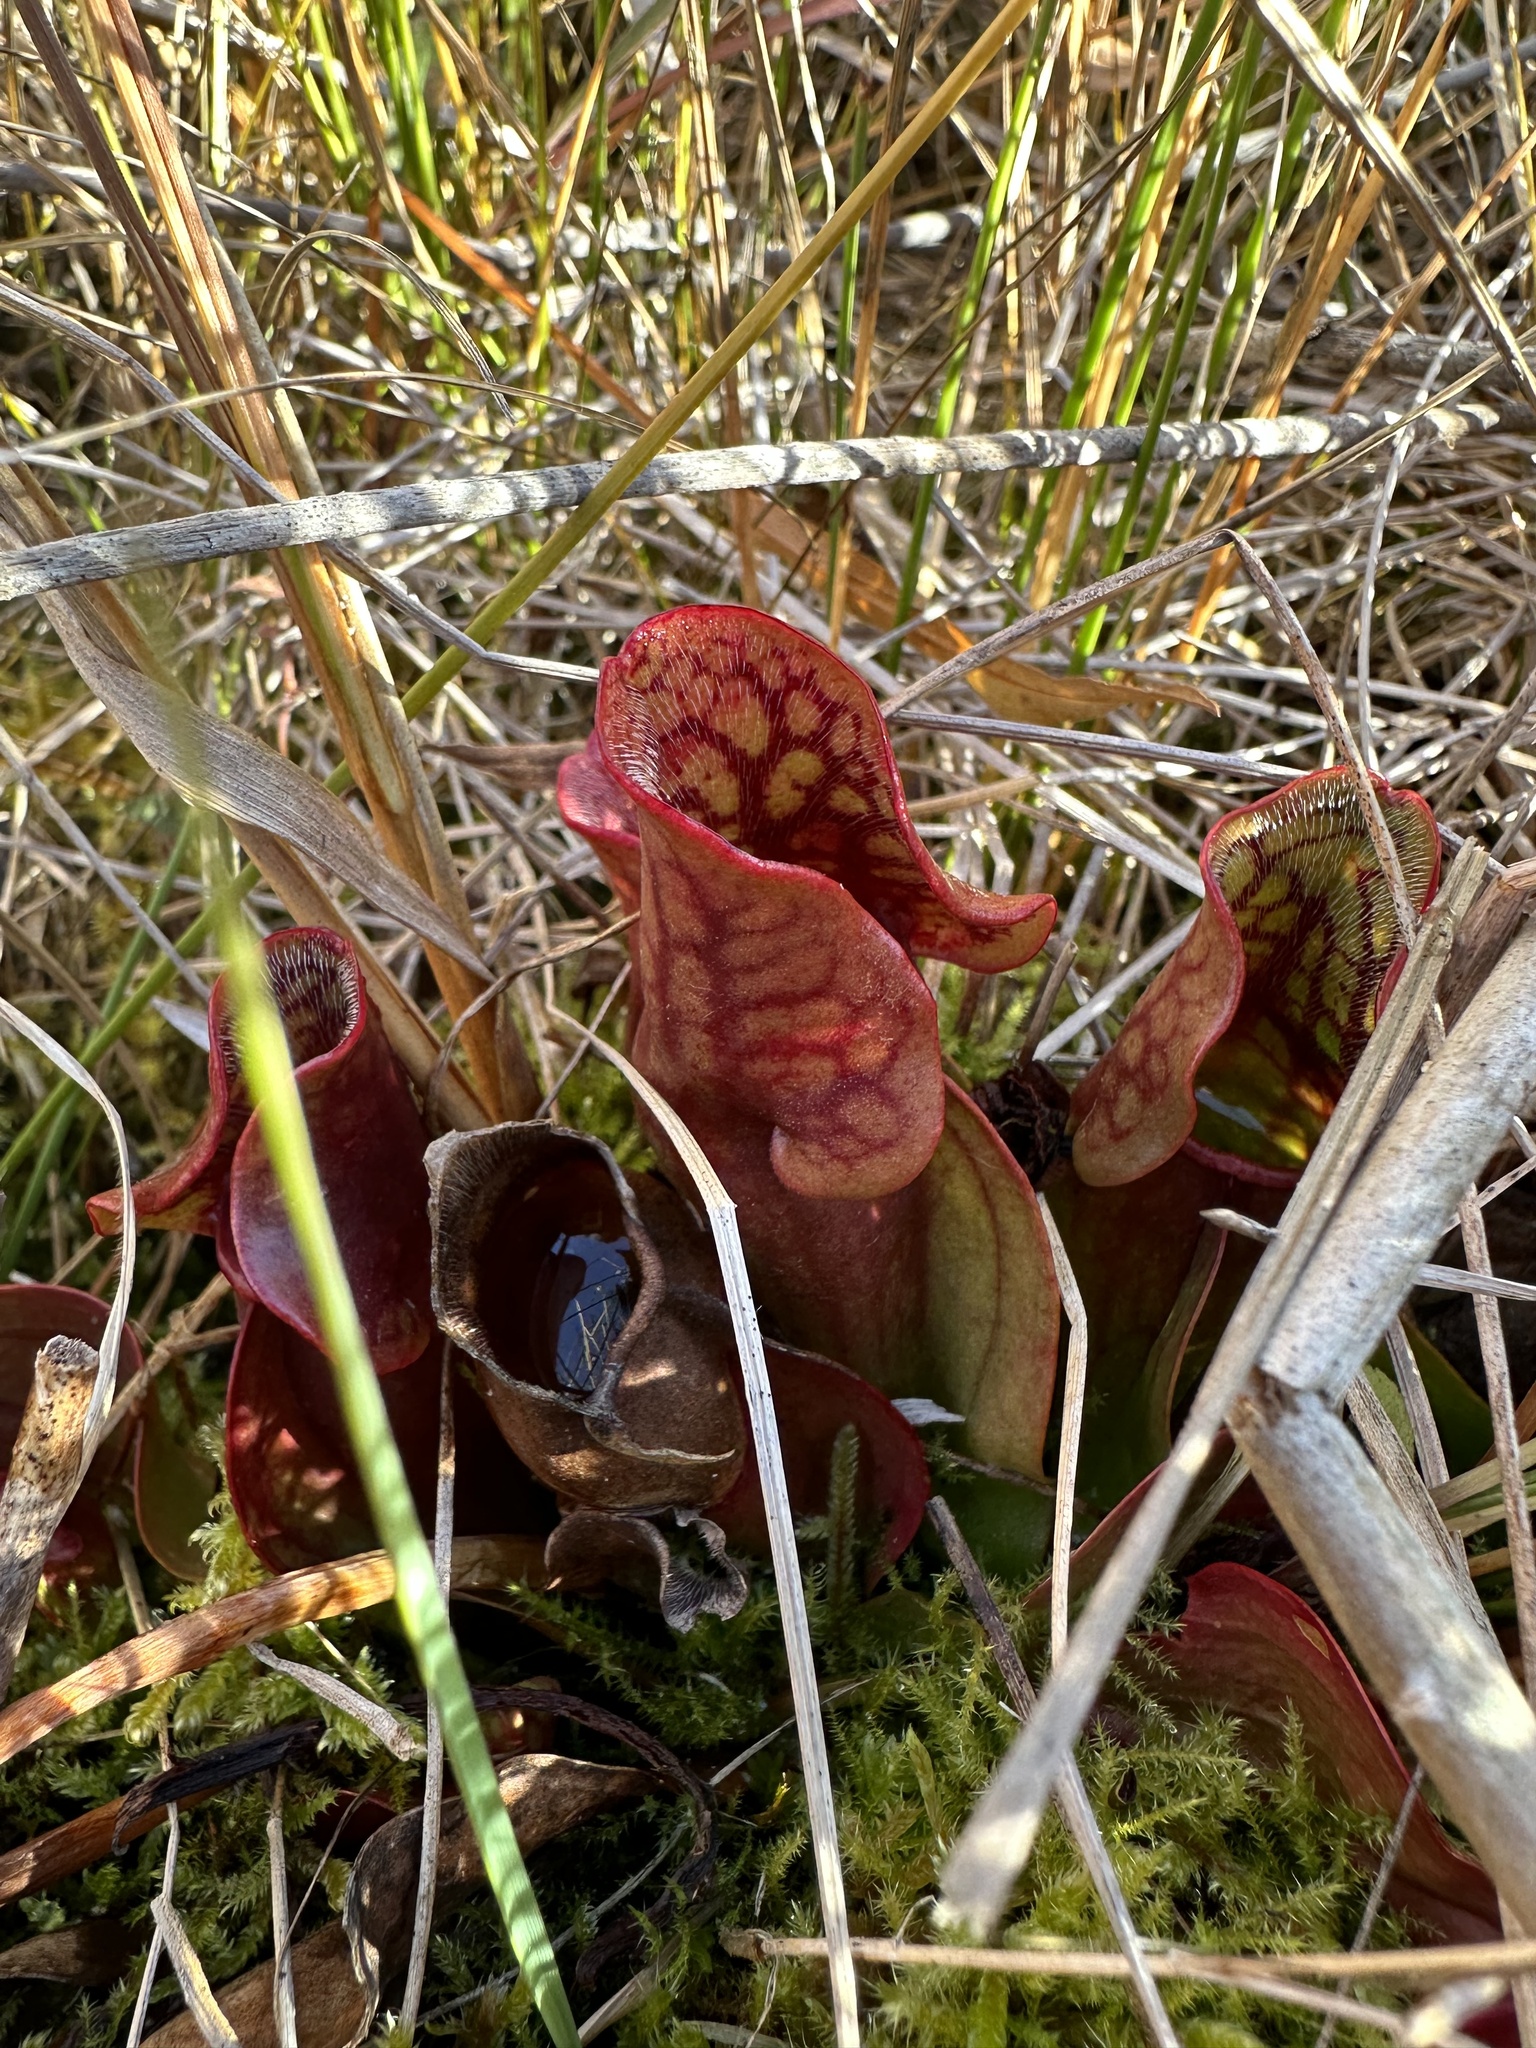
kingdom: Plantae
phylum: Tracheophyta
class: Magnoliopsida
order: Ericales
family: Sarraceniaceae
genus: Sarracenia
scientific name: Sarracenia purpurea
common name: Pitcherplant
